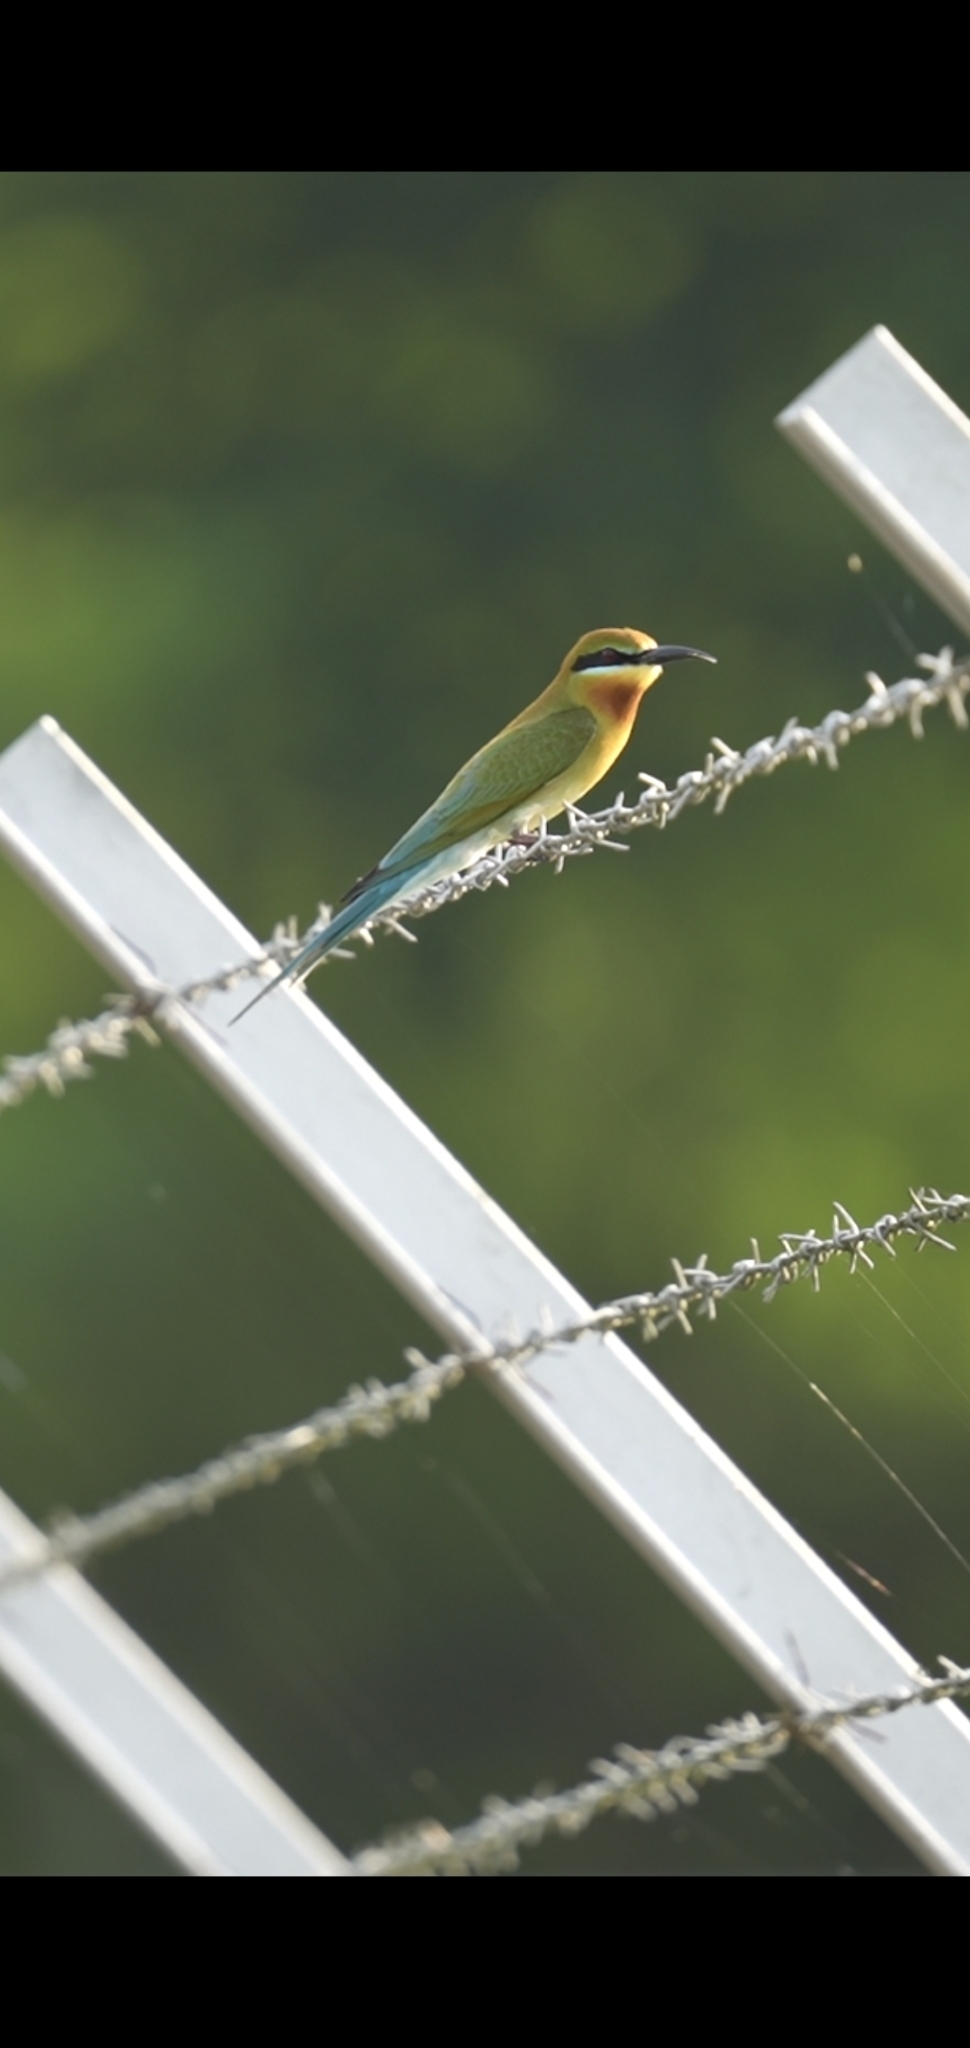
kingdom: Animalia
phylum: Chordata
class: Aves
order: Coraciiformes
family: Meropidae
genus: Merops
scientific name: Merops philippinus
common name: Blue-tailed bee-eater
